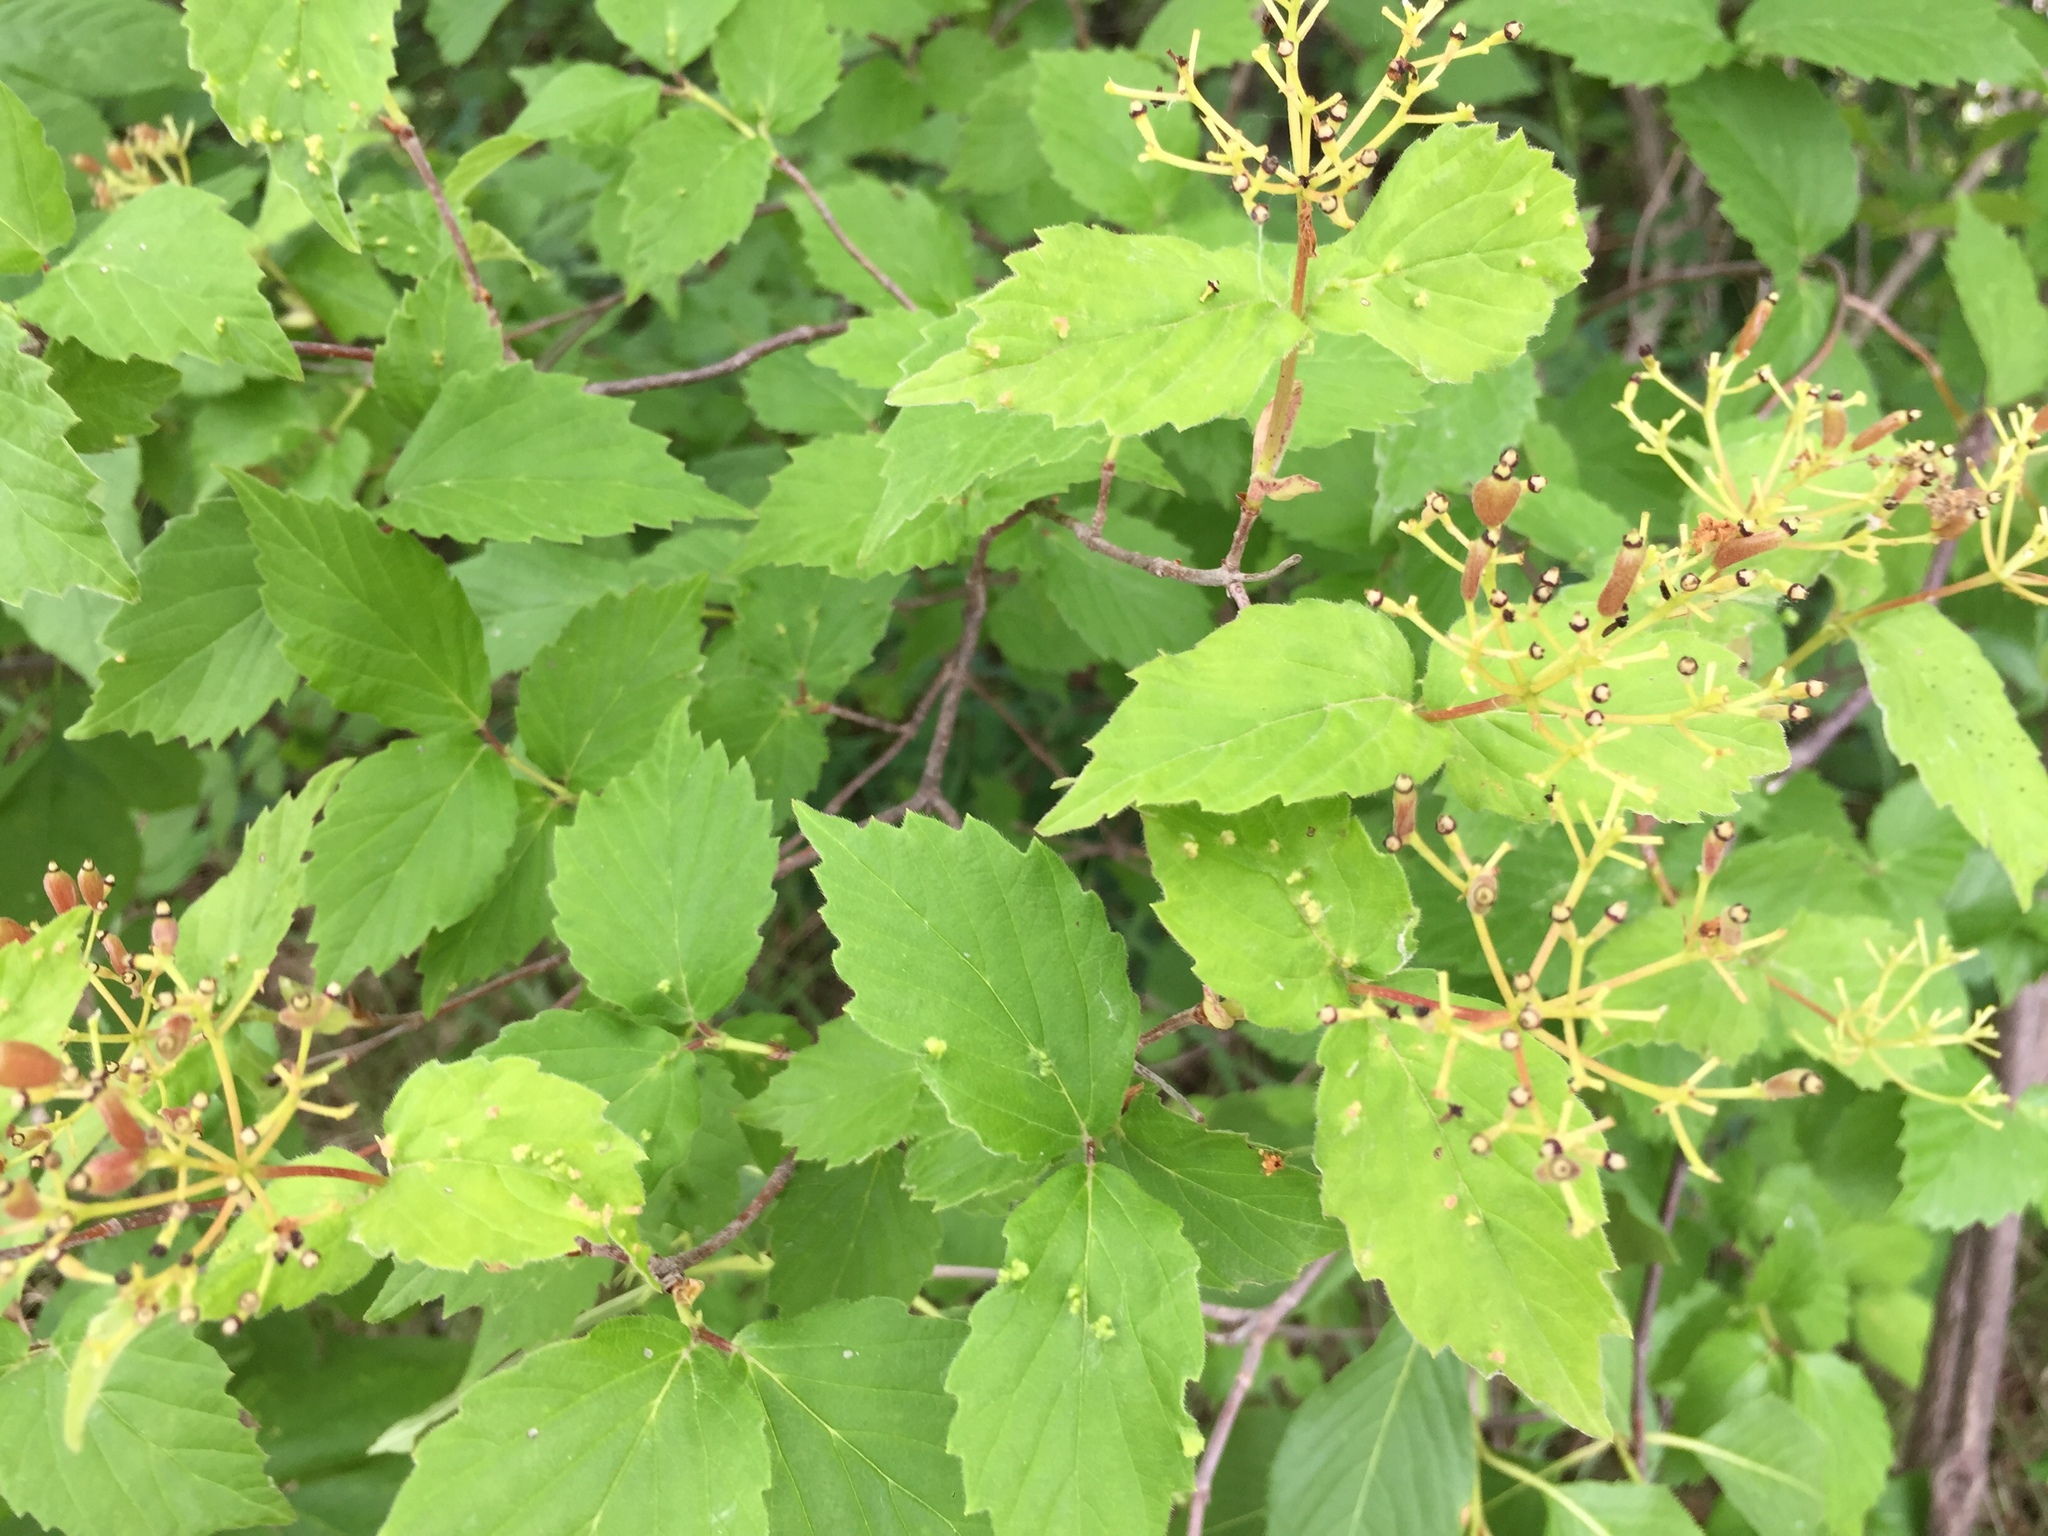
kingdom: Plantae
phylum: Tracheophyta
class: Magnoliopsida
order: Dipsacales
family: Viburnaceae
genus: Viburnum
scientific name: Viburnum rafinesqueanum
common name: Downy arrow-wood
